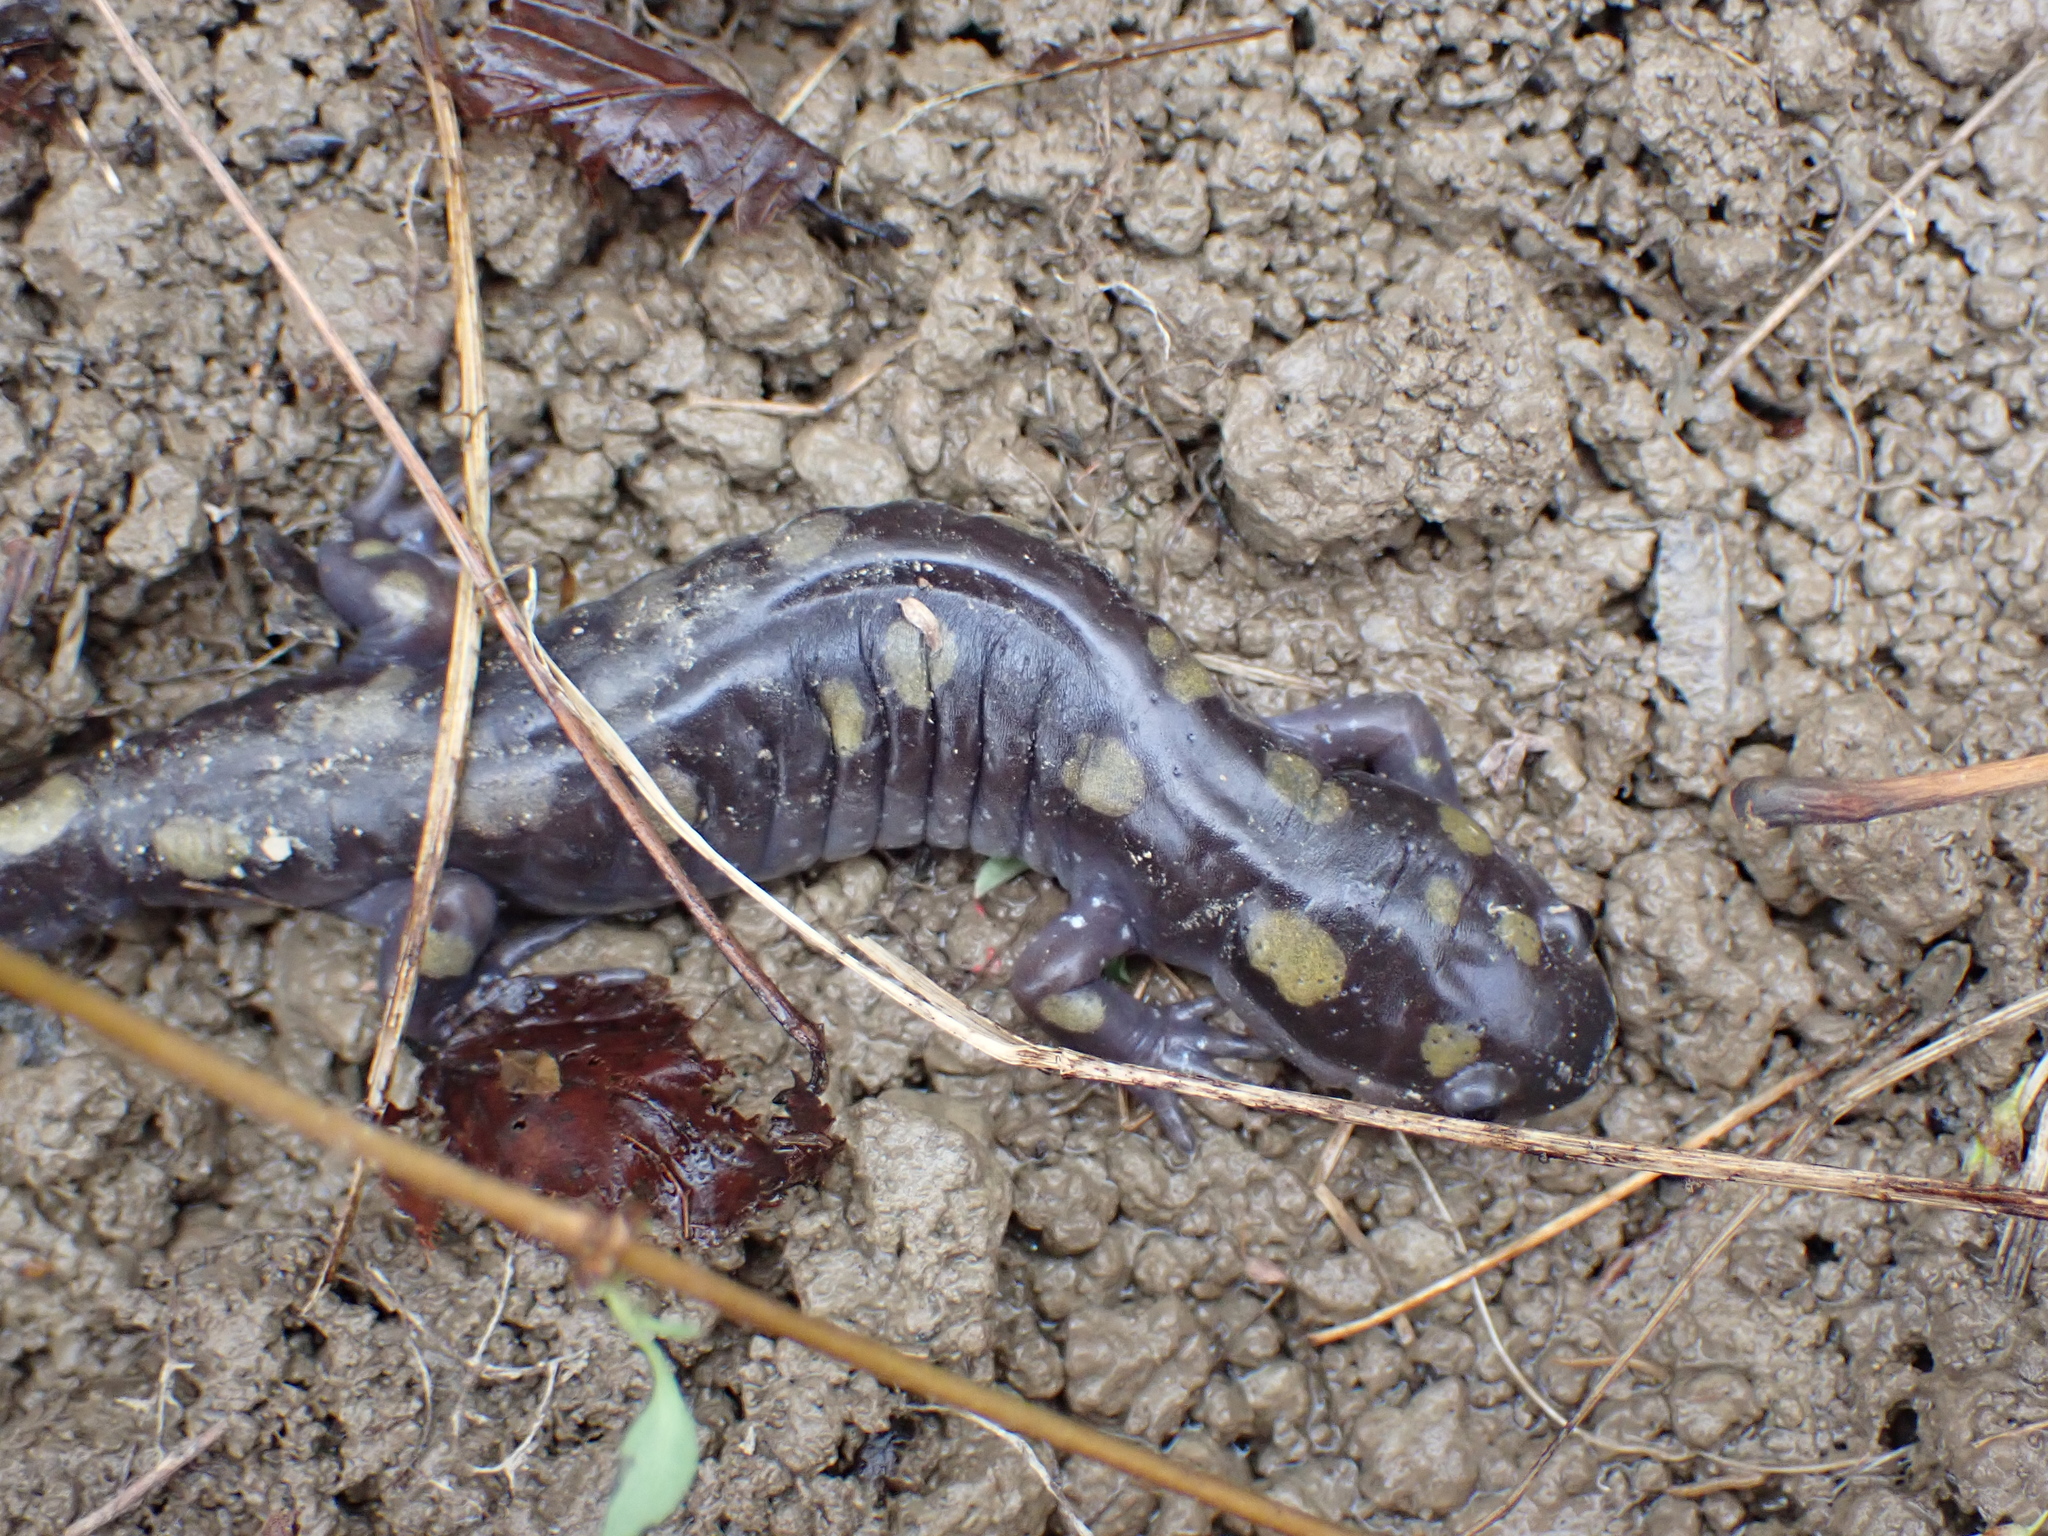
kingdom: Animalia
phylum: Chordata
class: Amphibia
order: Caudata
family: Ambystomatidae
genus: Ambystoma
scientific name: Ambystoma maculatum
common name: Spotted salamander
